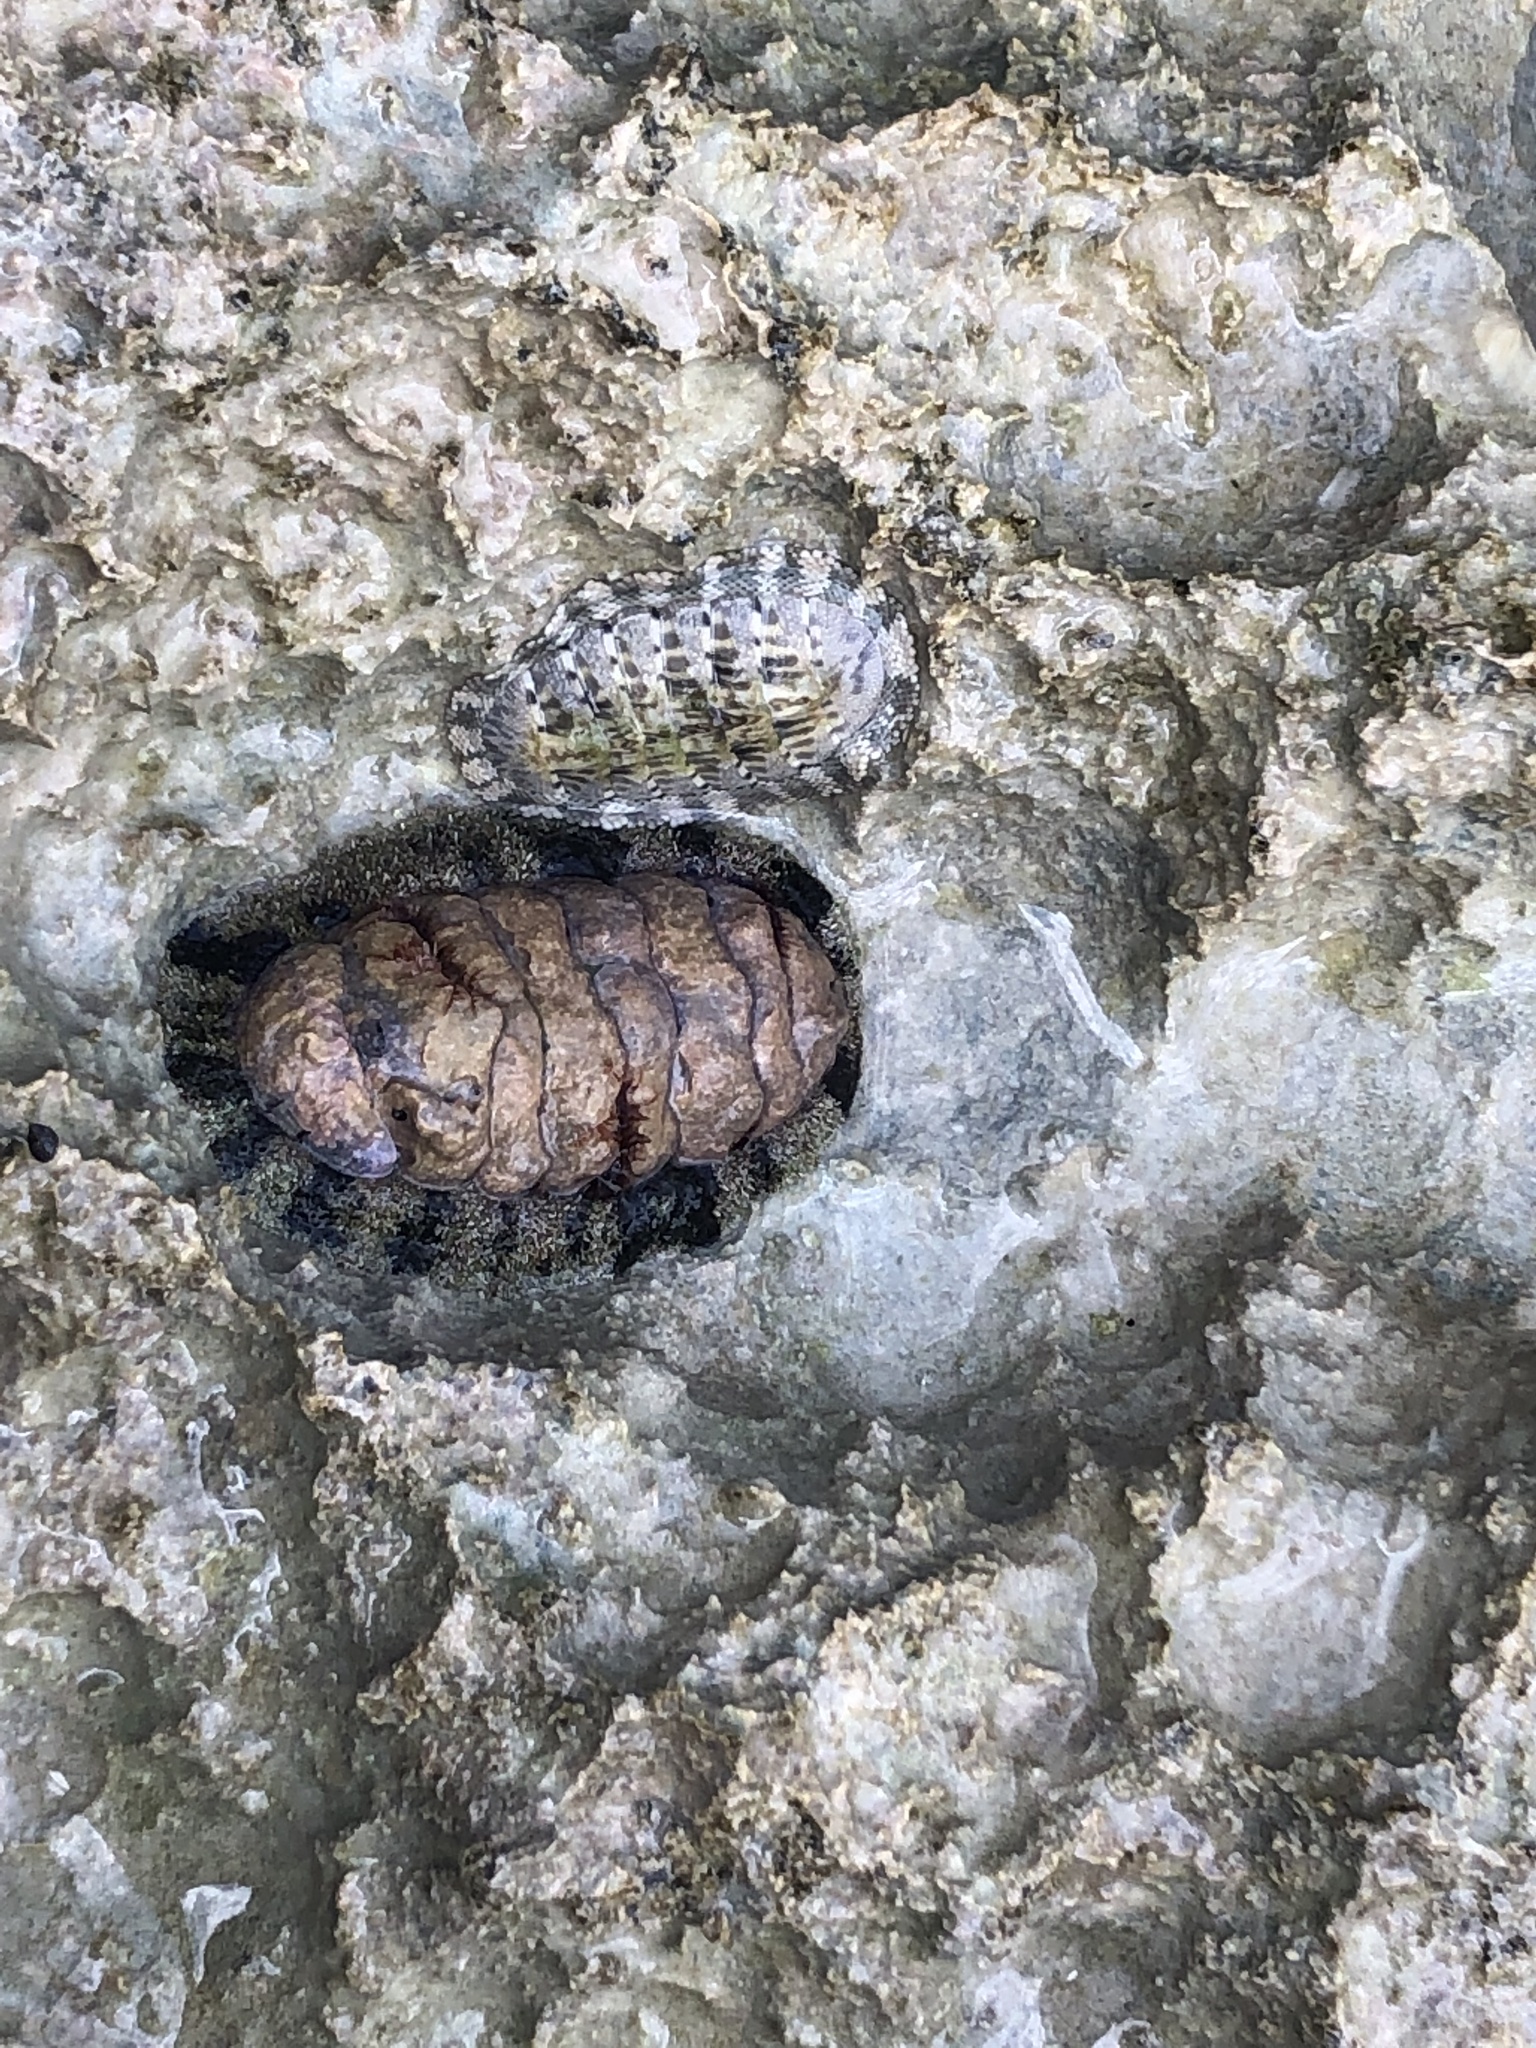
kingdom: Animalia
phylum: Mollusca
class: Polyplacophora
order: Chitonida
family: Chitonidae
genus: Acanthopleura
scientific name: Acanthopleura granulata
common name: West indian fuzzy chiton
